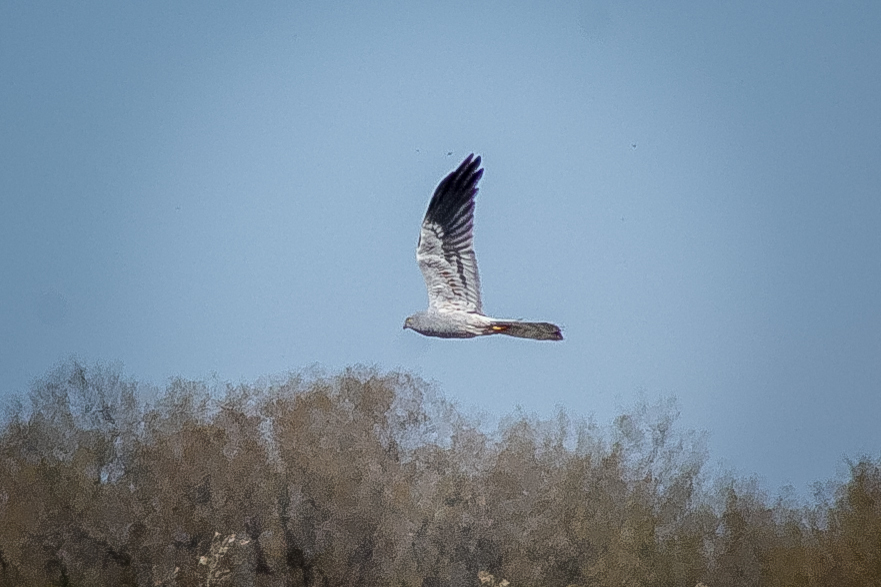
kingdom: Animalia
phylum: Chordata
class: Aves
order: Accipitriformes
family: Accipitridae
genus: Circus
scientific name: Circus pygargus
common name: Montagu's harrier
